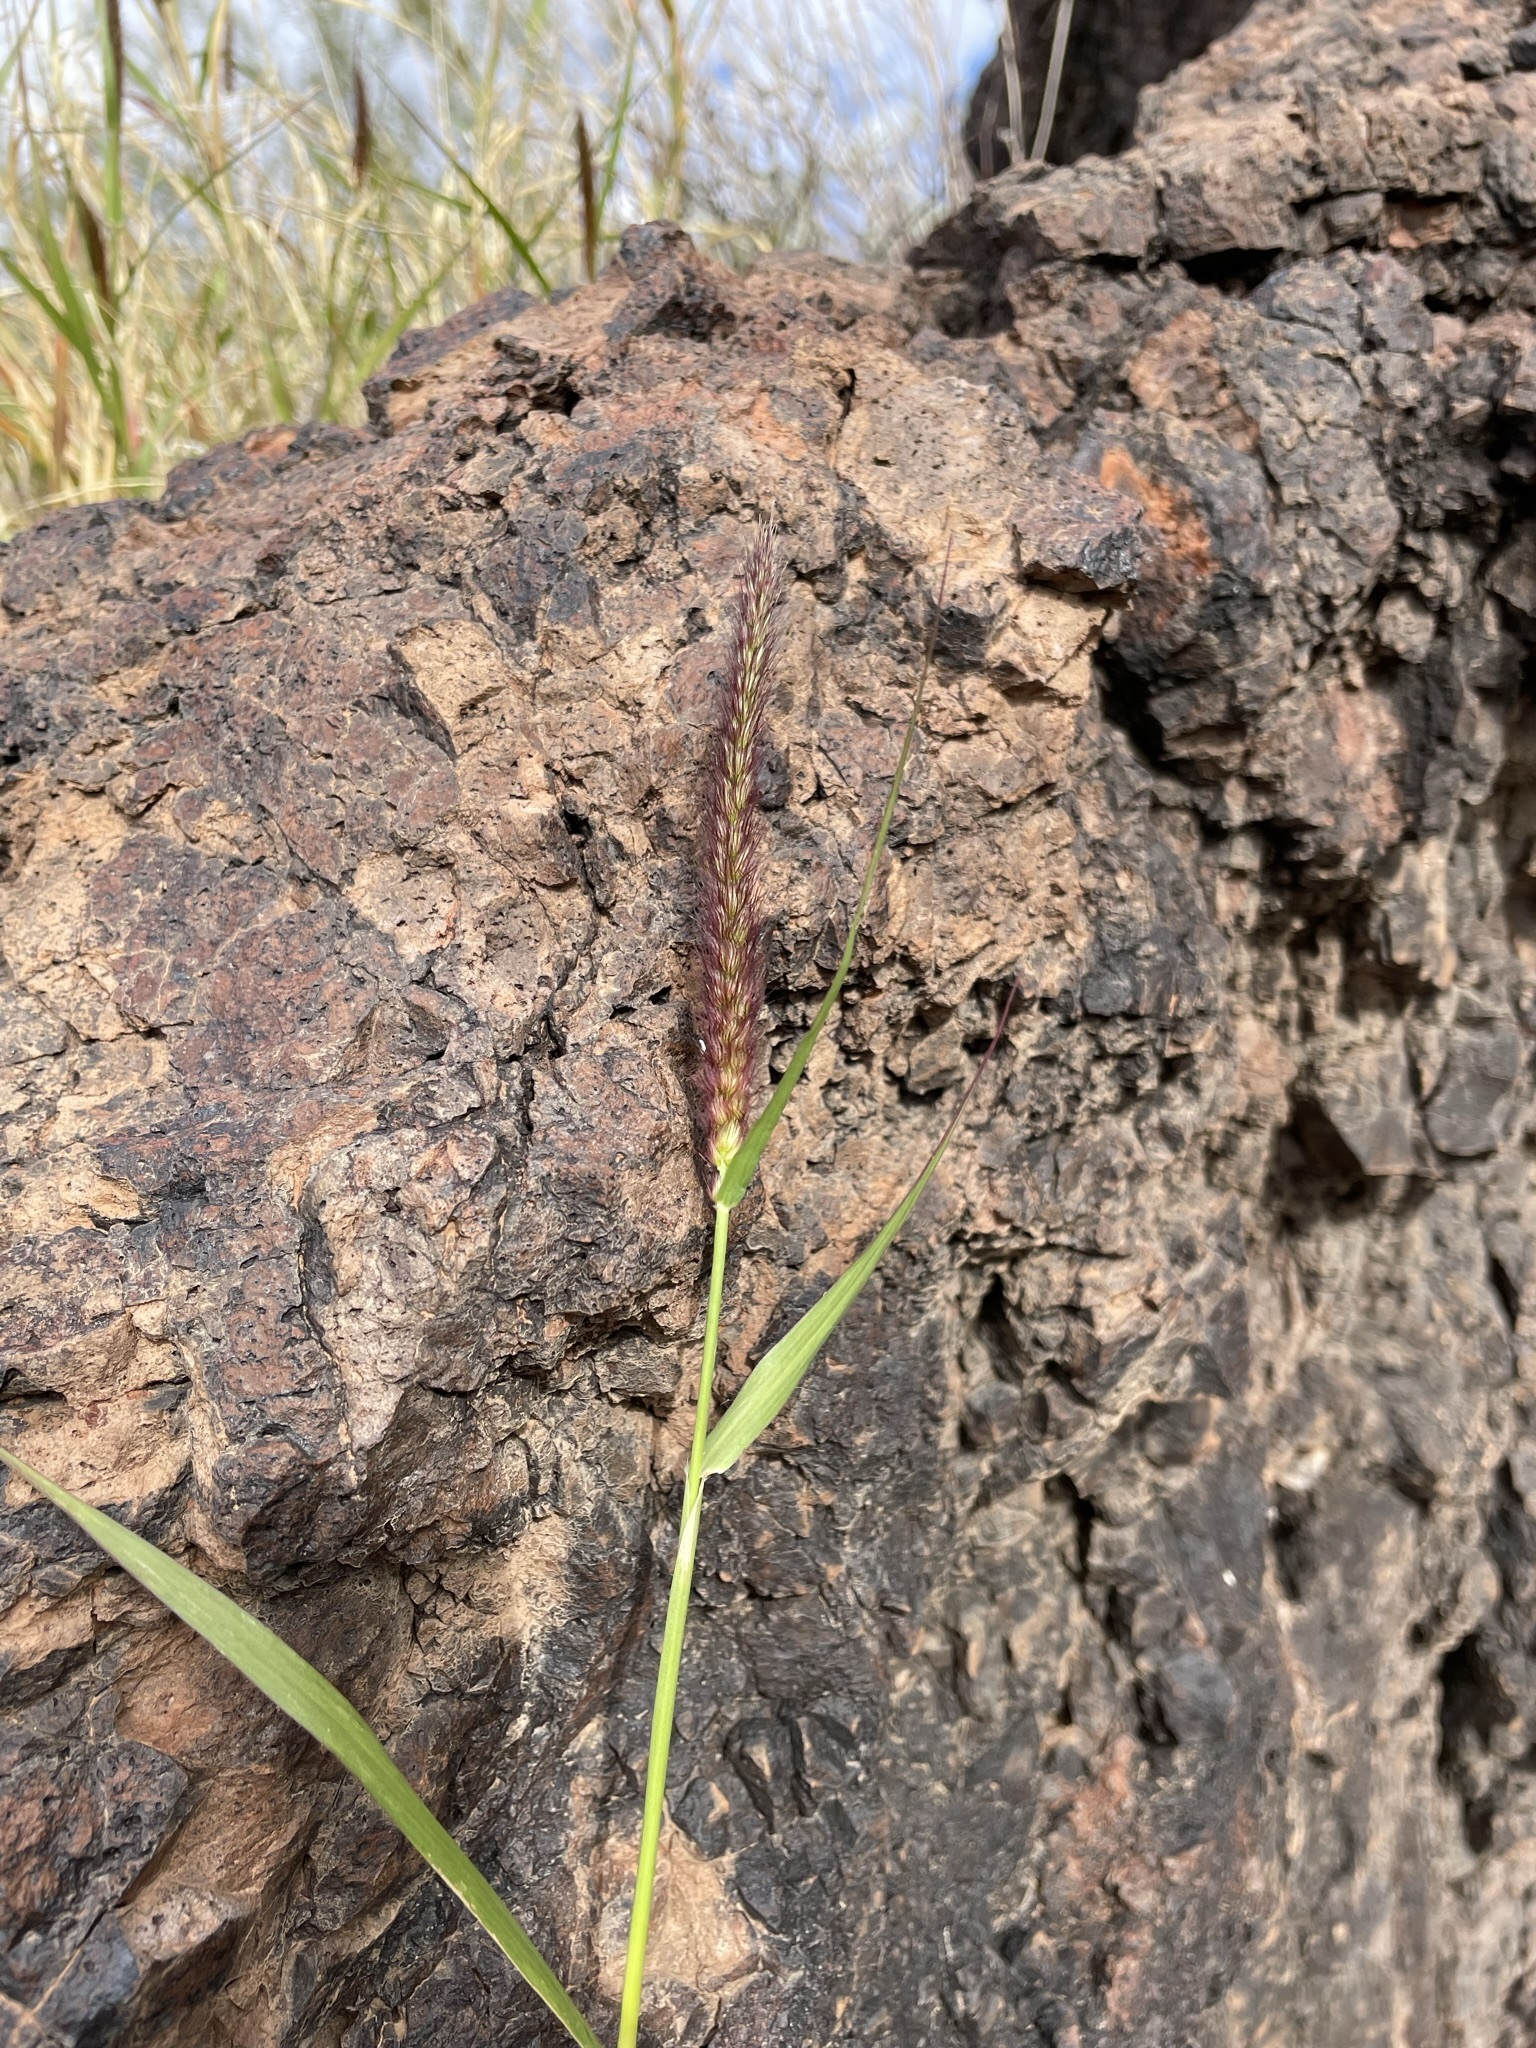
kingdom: Plantae
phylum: Tracheophyta
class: Liliopsida
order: Poales
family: Poaceae
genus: Cenchrus
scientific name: Cenchrus ciliaris
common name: Buffelgrass
